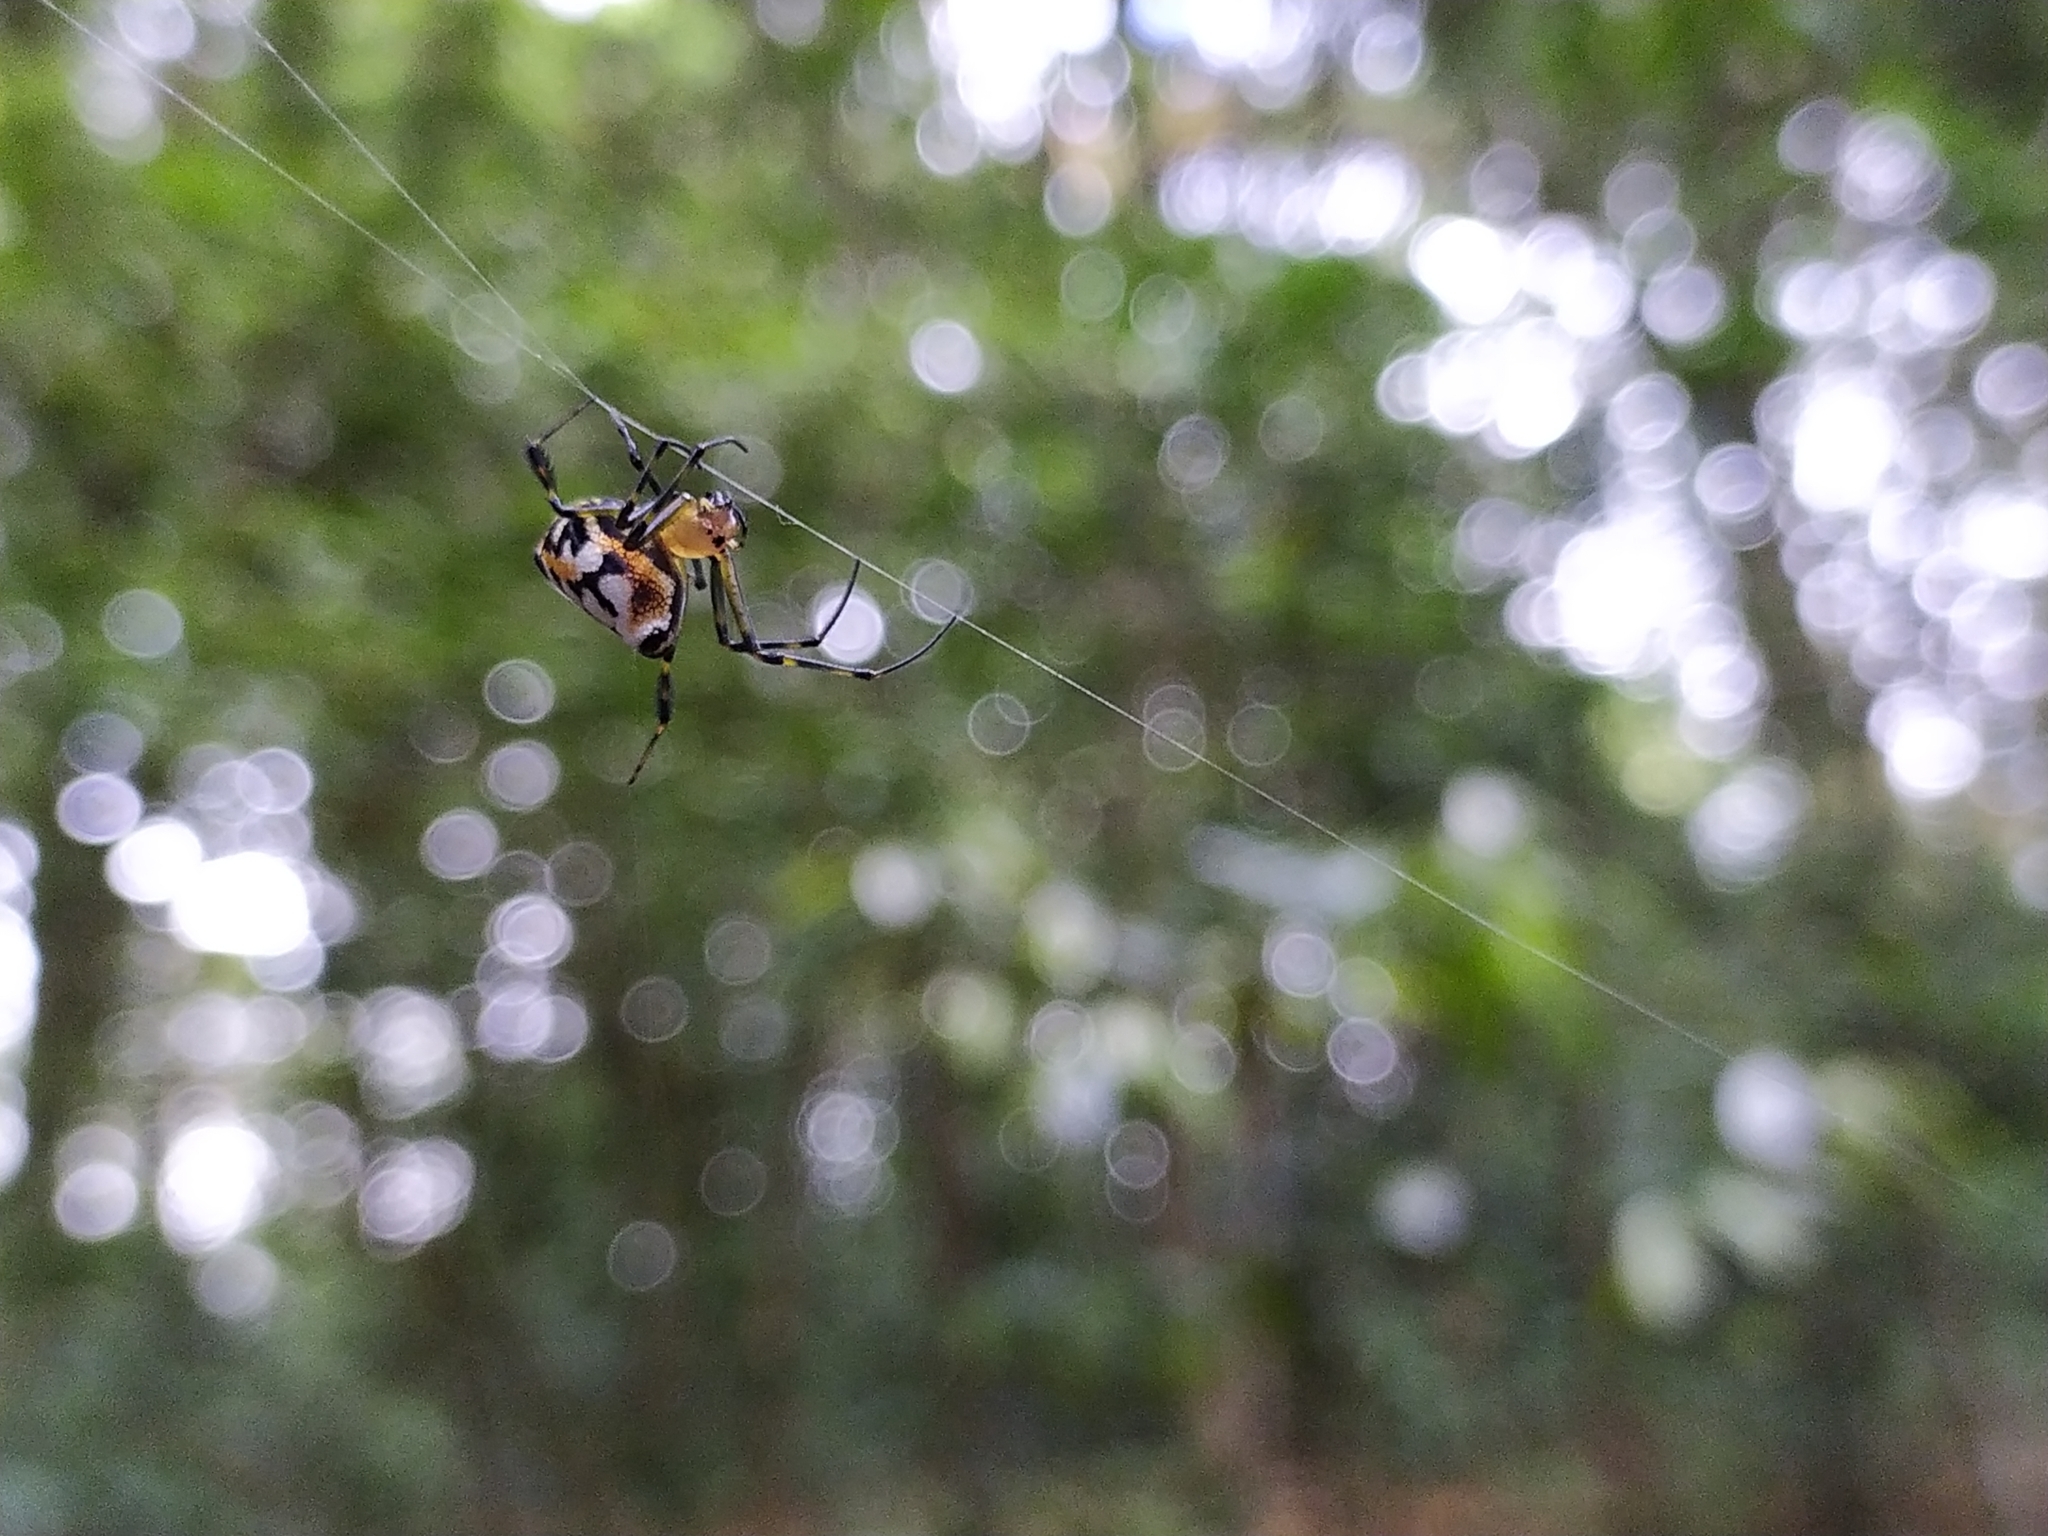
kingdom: Animalia
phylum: Arthropoda
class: Arachnida
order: Araneae
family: Tetragnathidae
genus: Leucauge
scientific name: Leucauge fastigata
